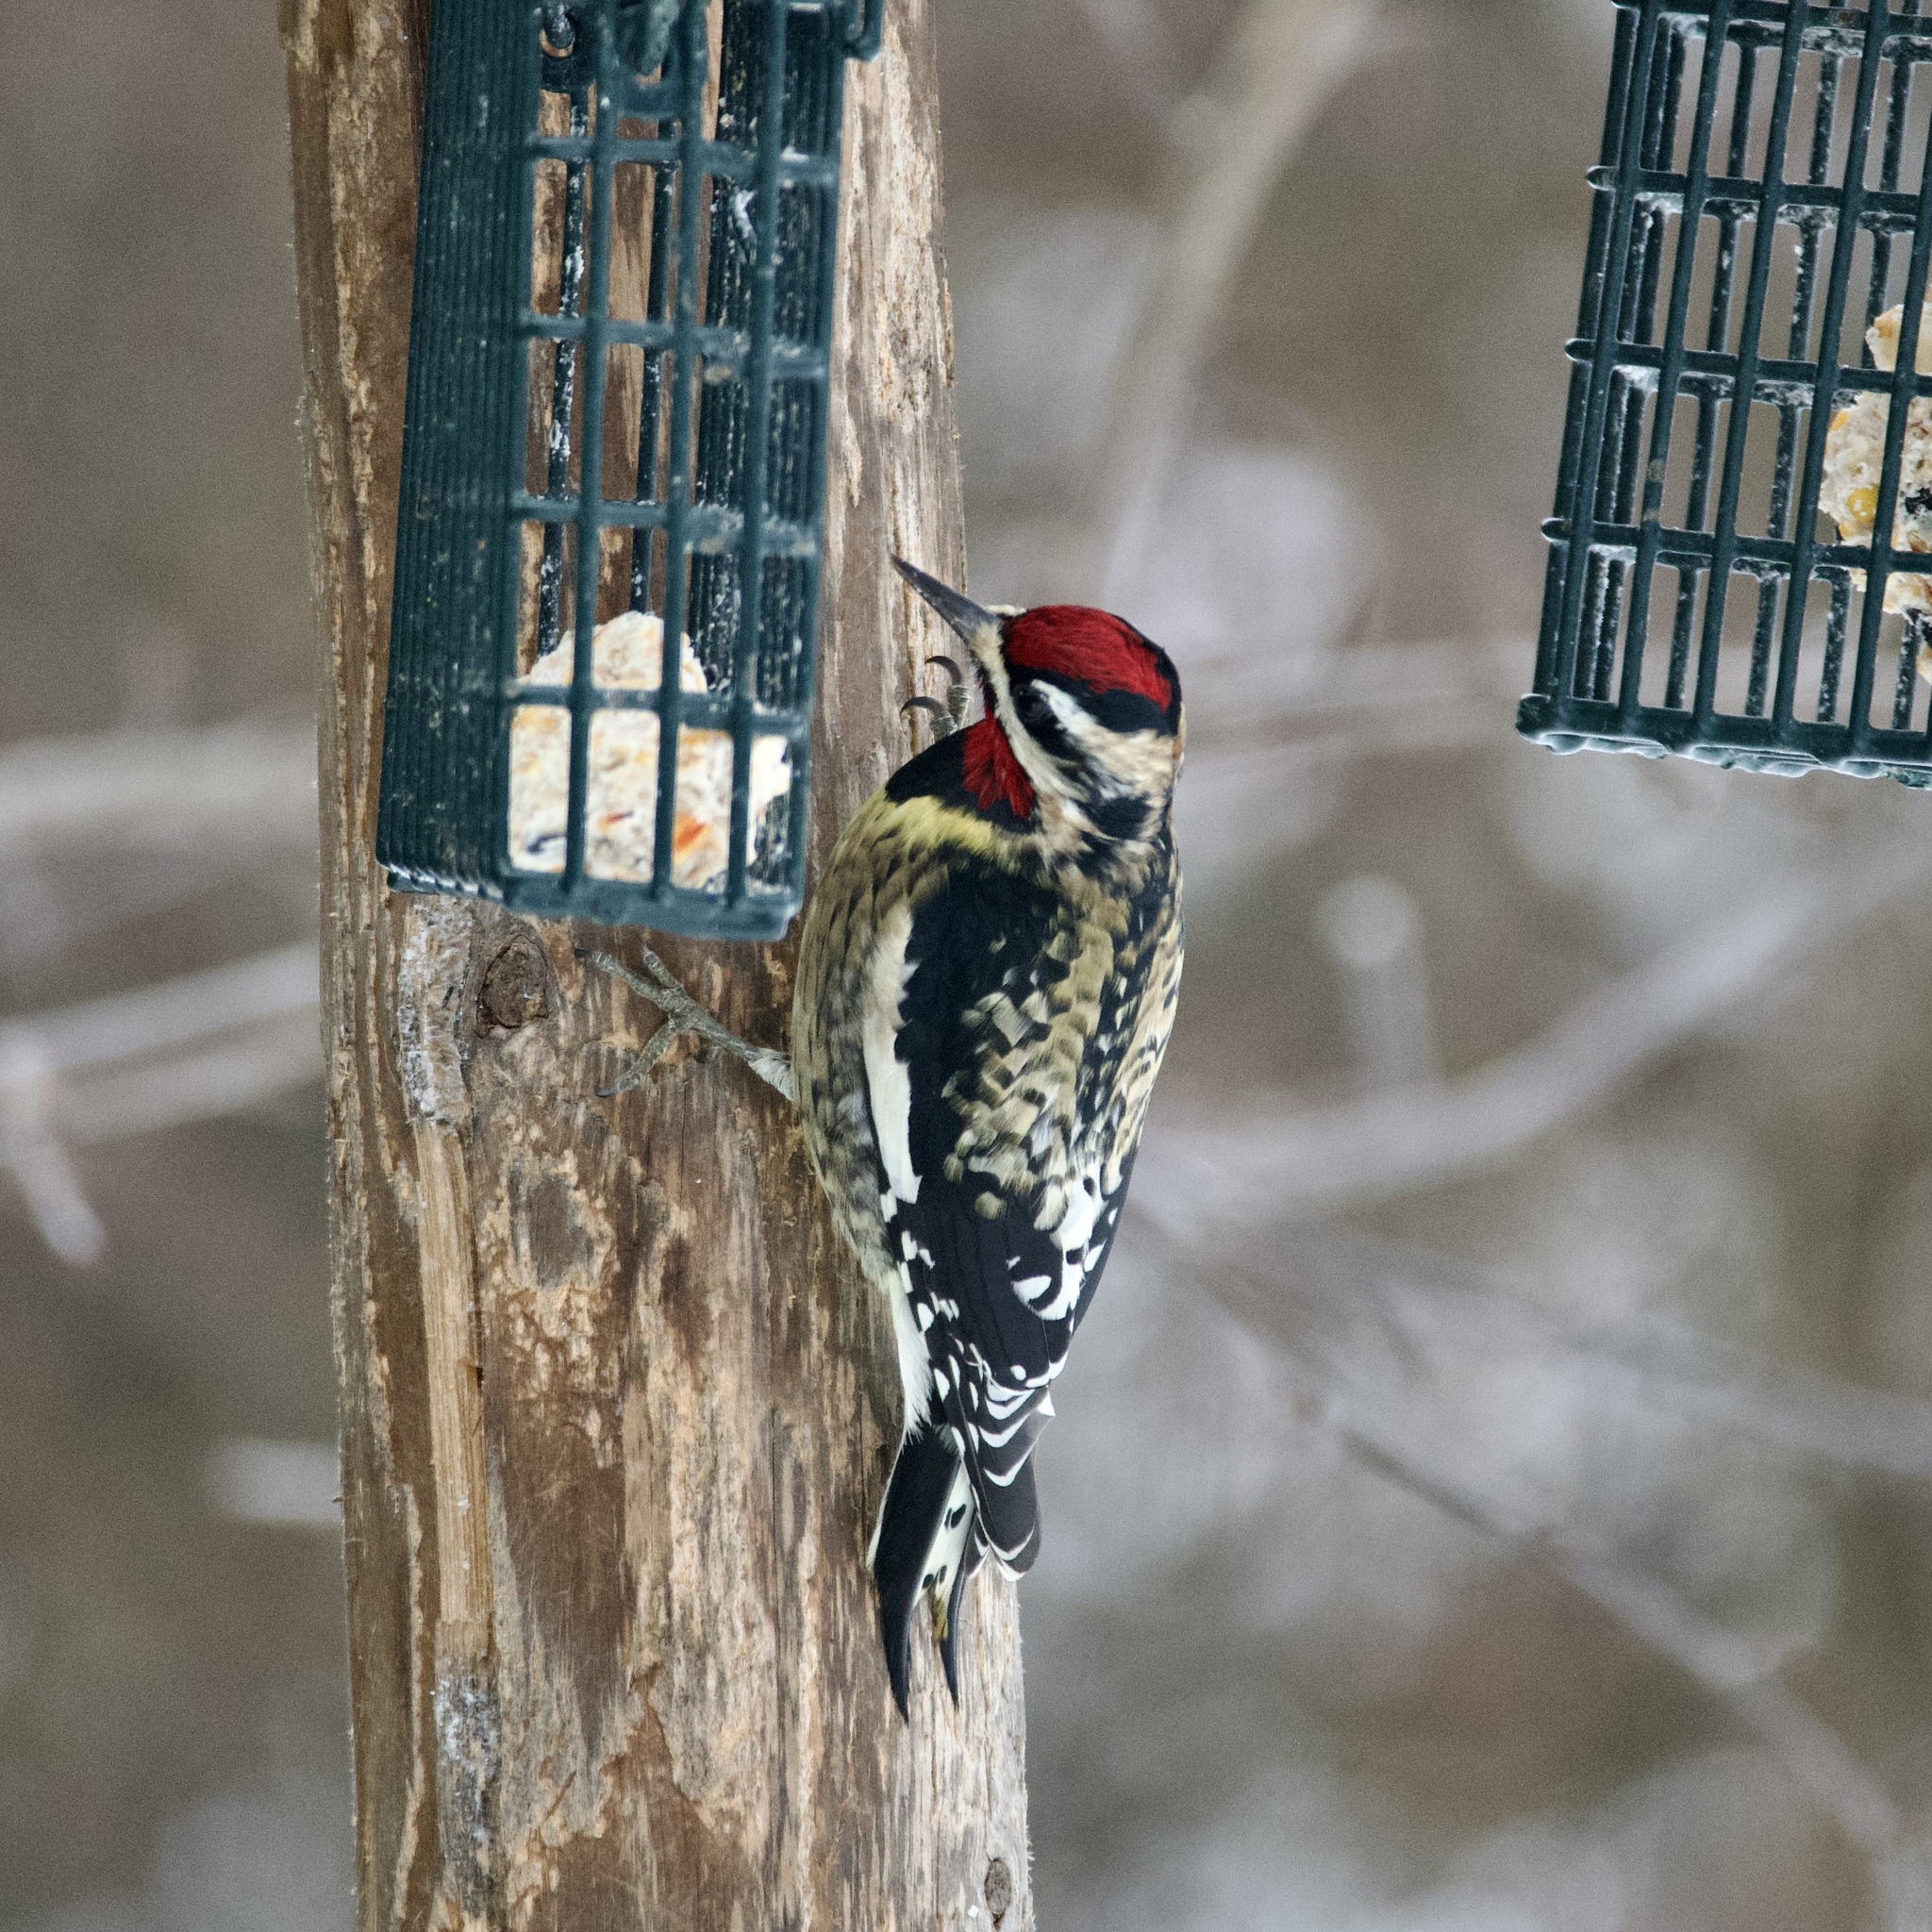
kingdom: Animalia
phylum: Chordata
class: Aves
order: Piciformes
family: Picidae
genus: Sphyrapicus
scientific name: Sphyrapicus varius
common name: Yellow-bellied sapsucker
